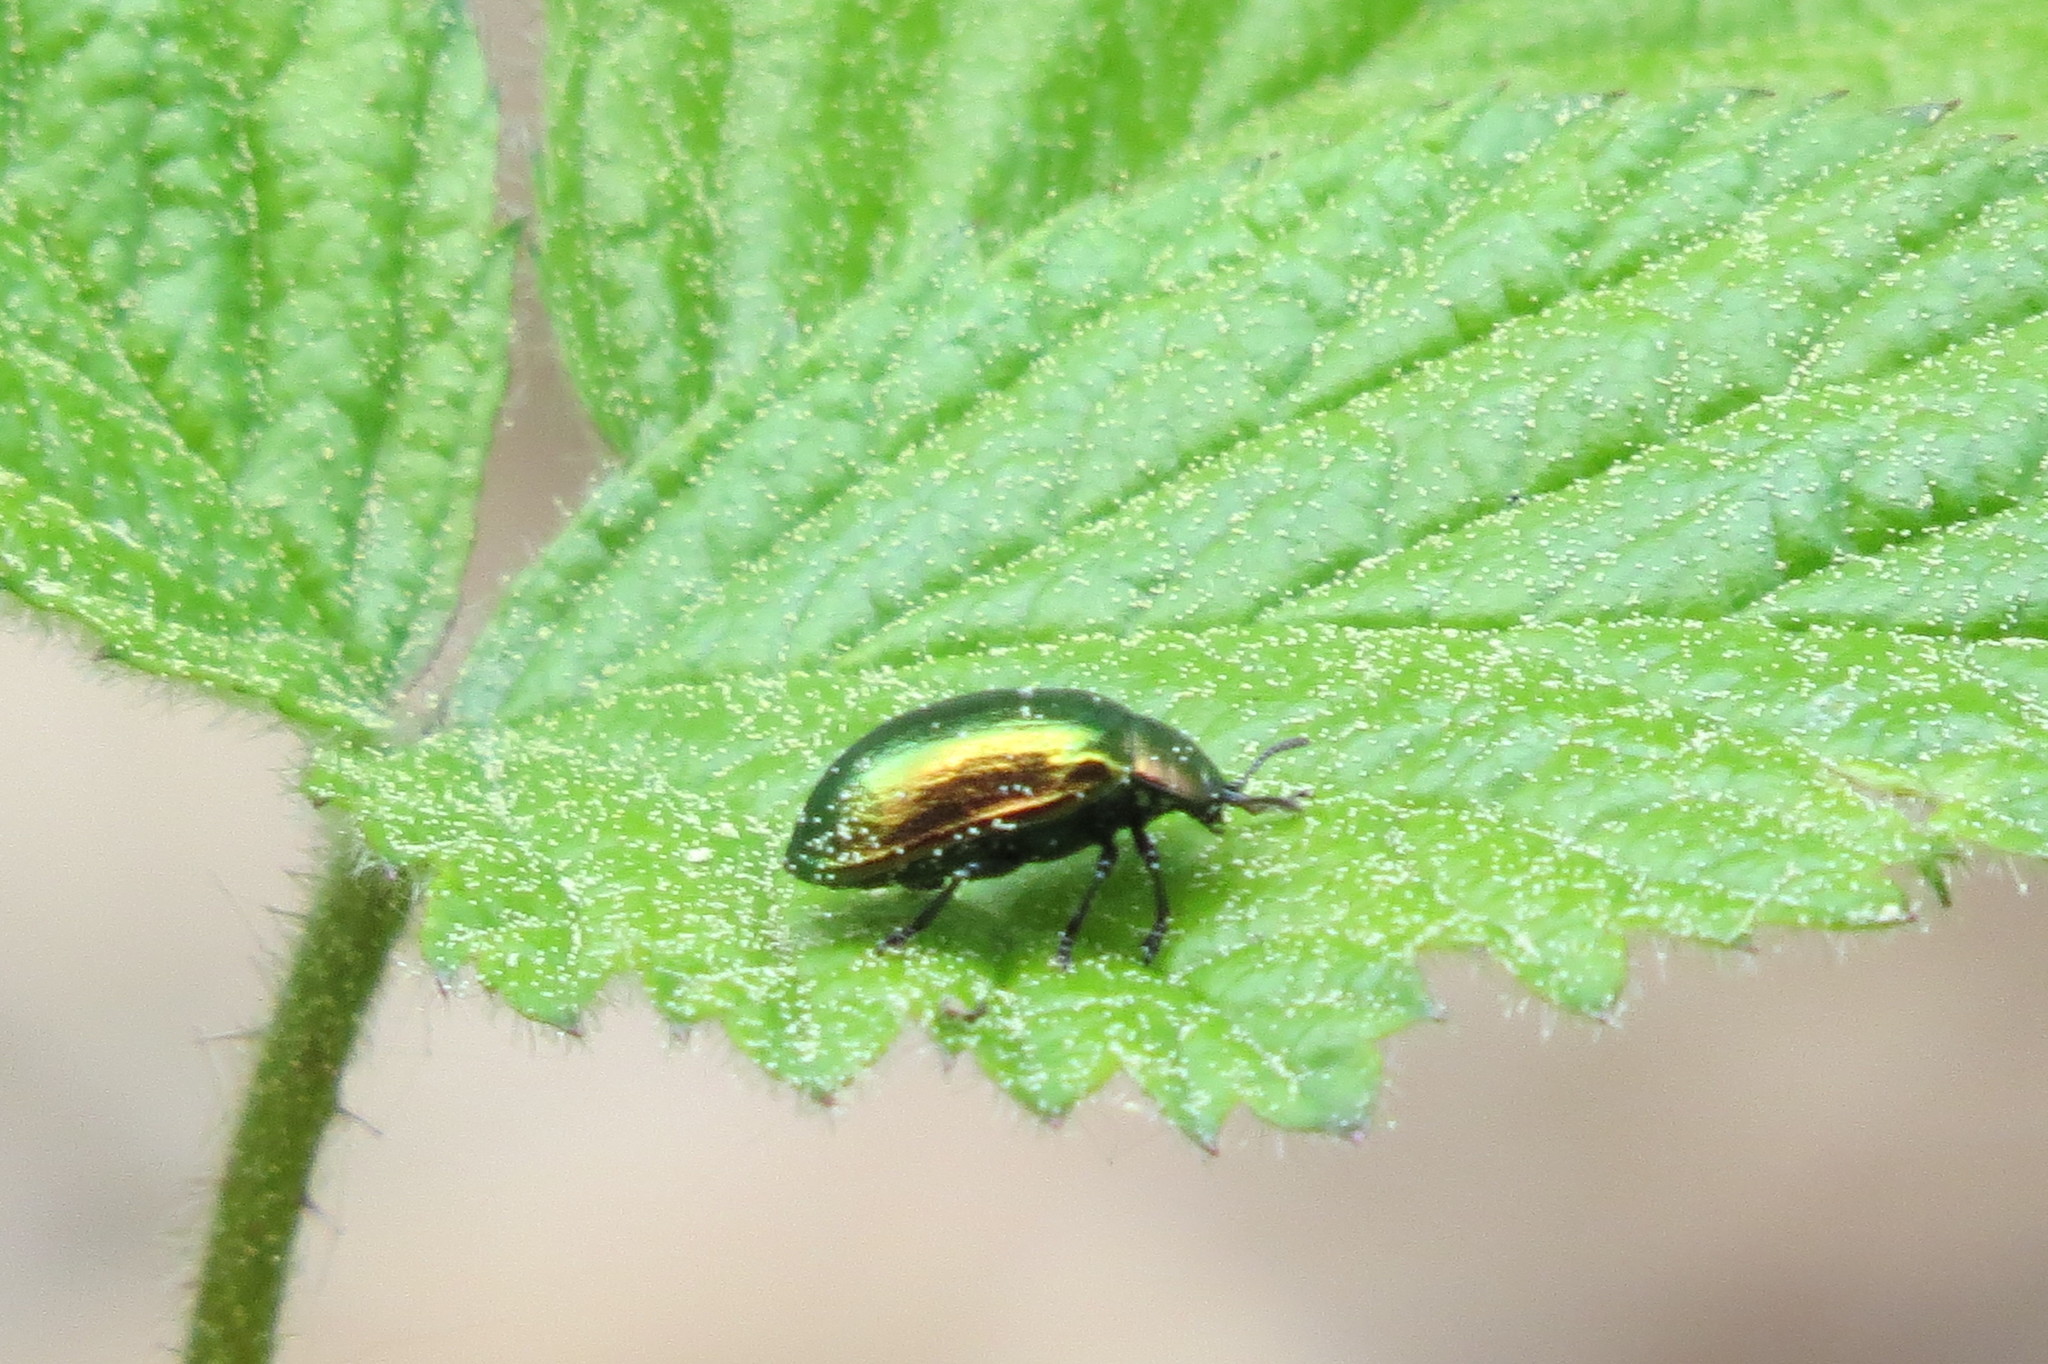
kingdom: Animalia
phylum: Arthropoda
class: Insecta
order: Coleoptera
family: Chrysomelidae
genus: Plagiosterna
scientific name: Plagiosterna aenea
